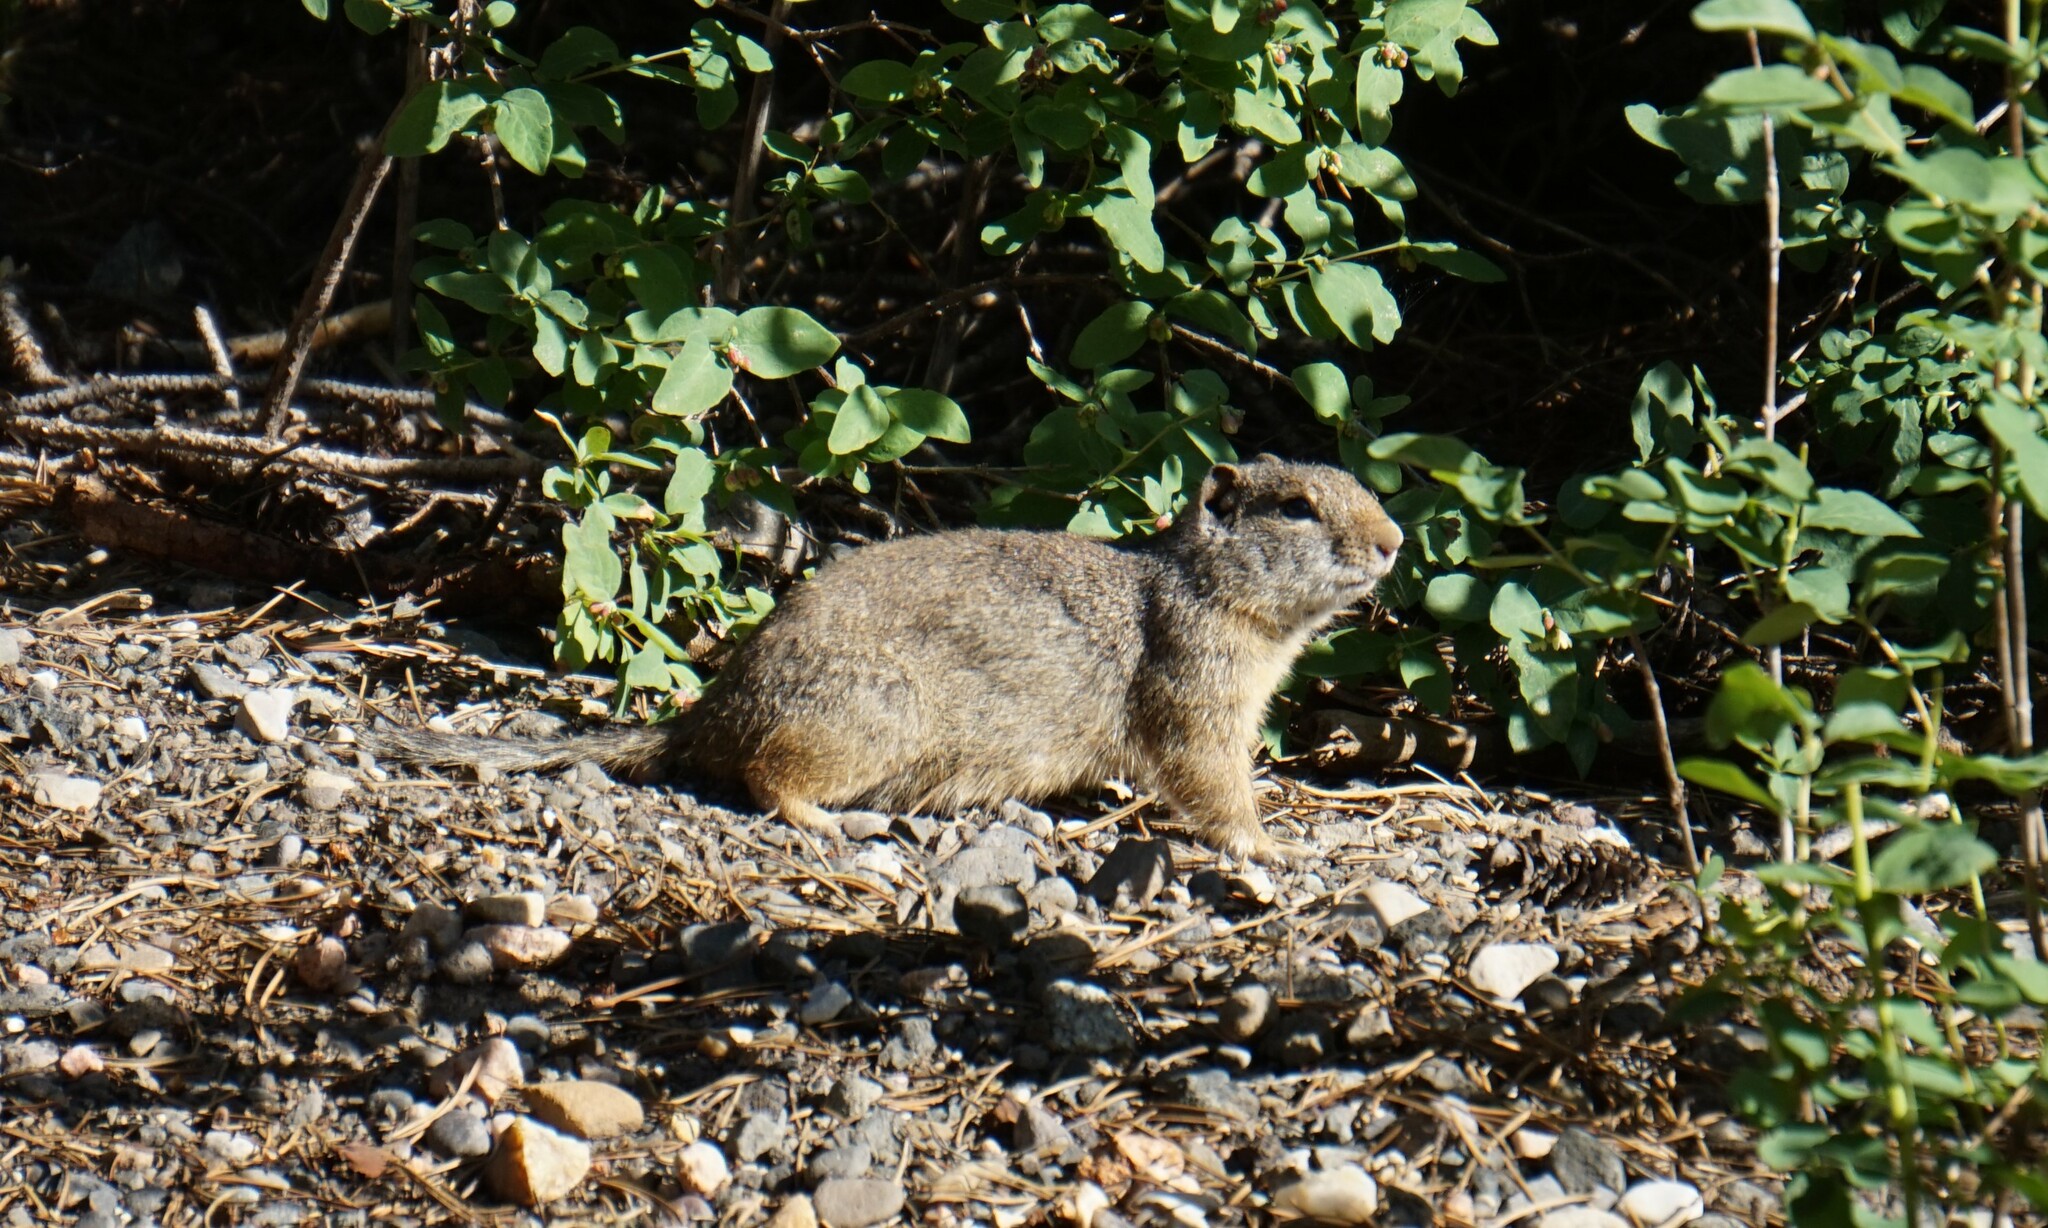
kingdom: Animalia
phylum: Chordata
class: Mammalia
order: Rodentia
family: Sciuridae
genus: Urocitellus
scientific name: Urocitellus armatus
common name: Uinta ground squirrel
